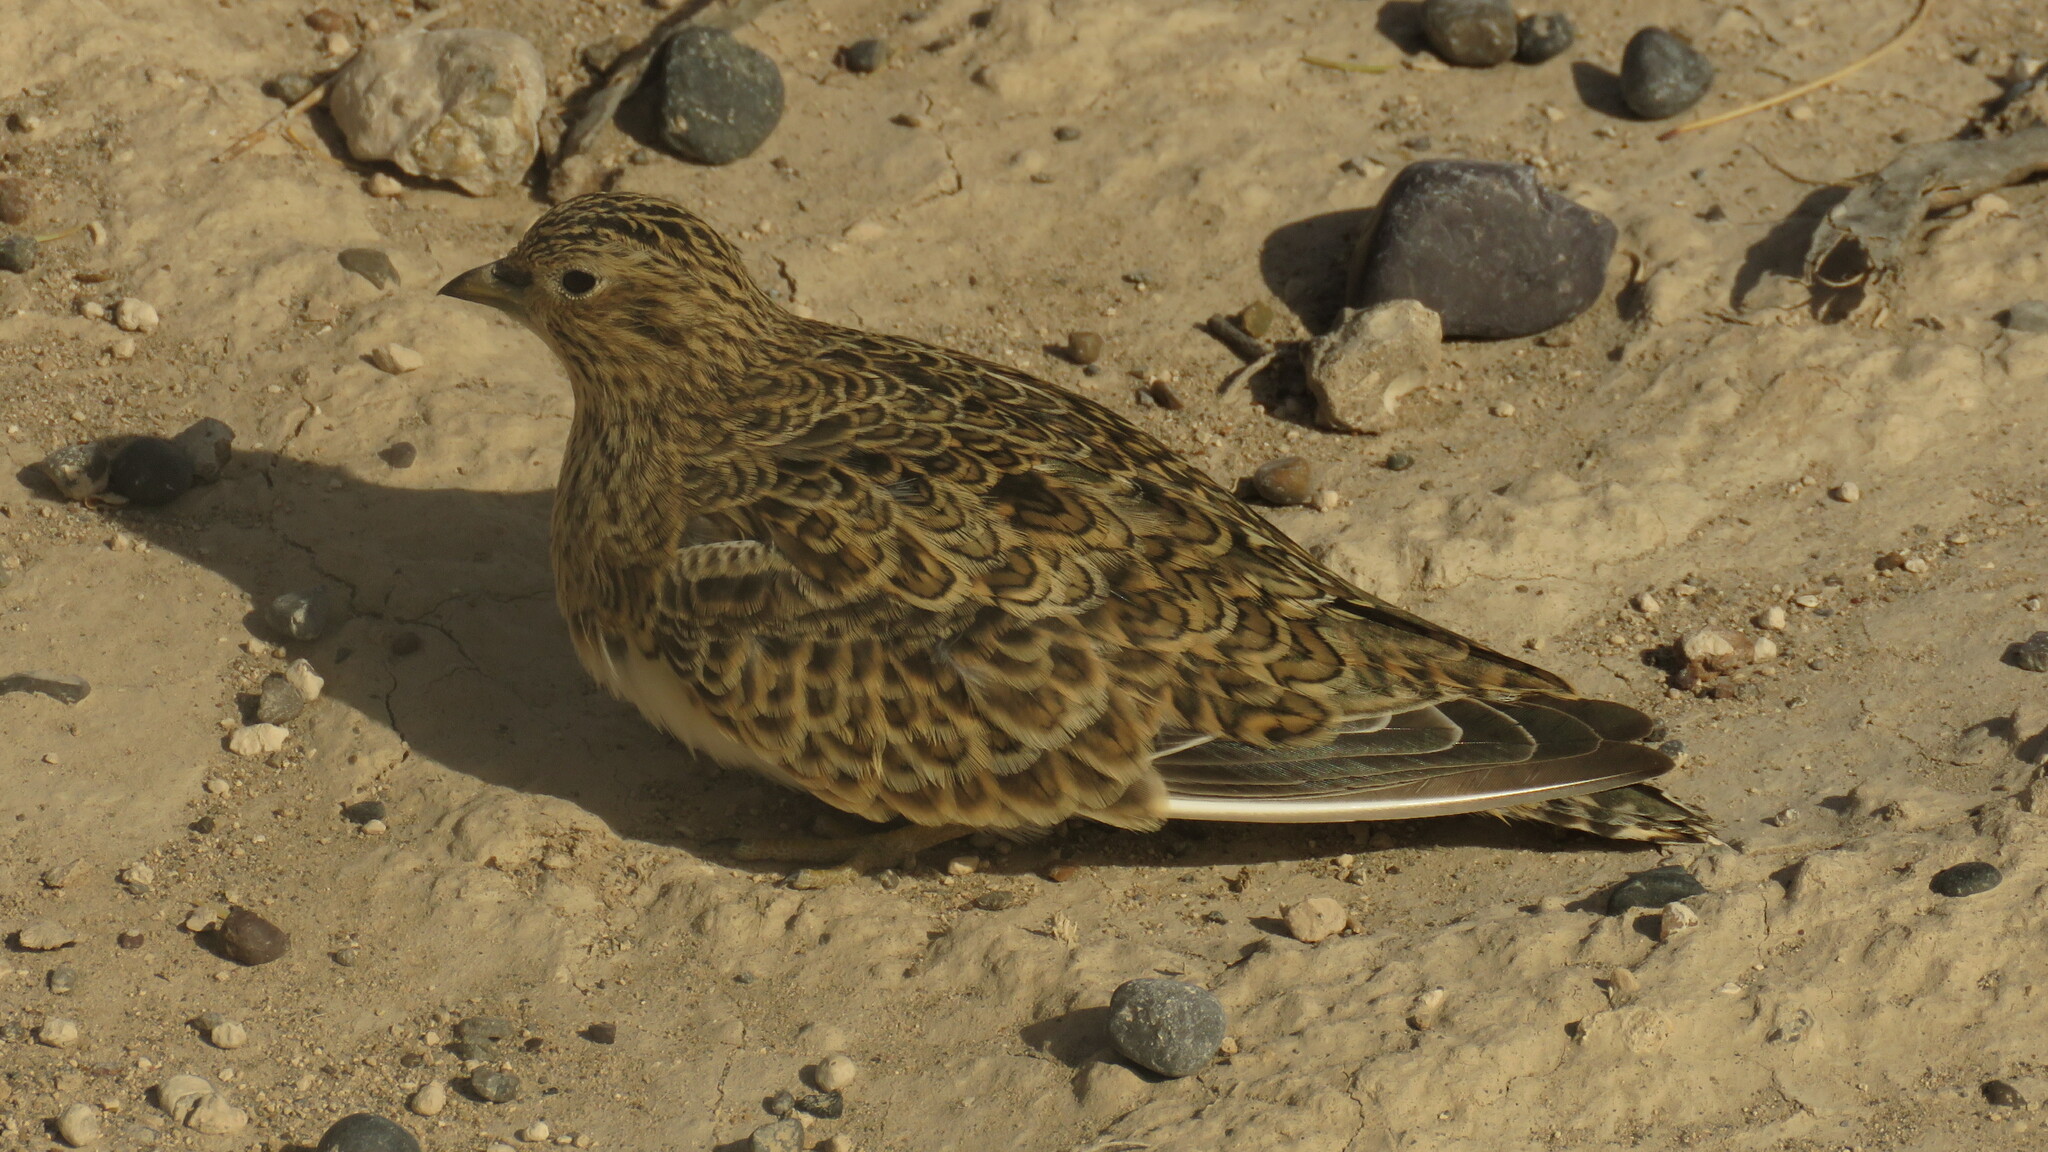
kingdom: Animalia
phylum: Chordata
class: Aves
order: Charadriiformes
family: Thinocoridae
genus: Thinocorus
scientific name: Thinocorus rumicivorus
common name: Least seedsnipe
